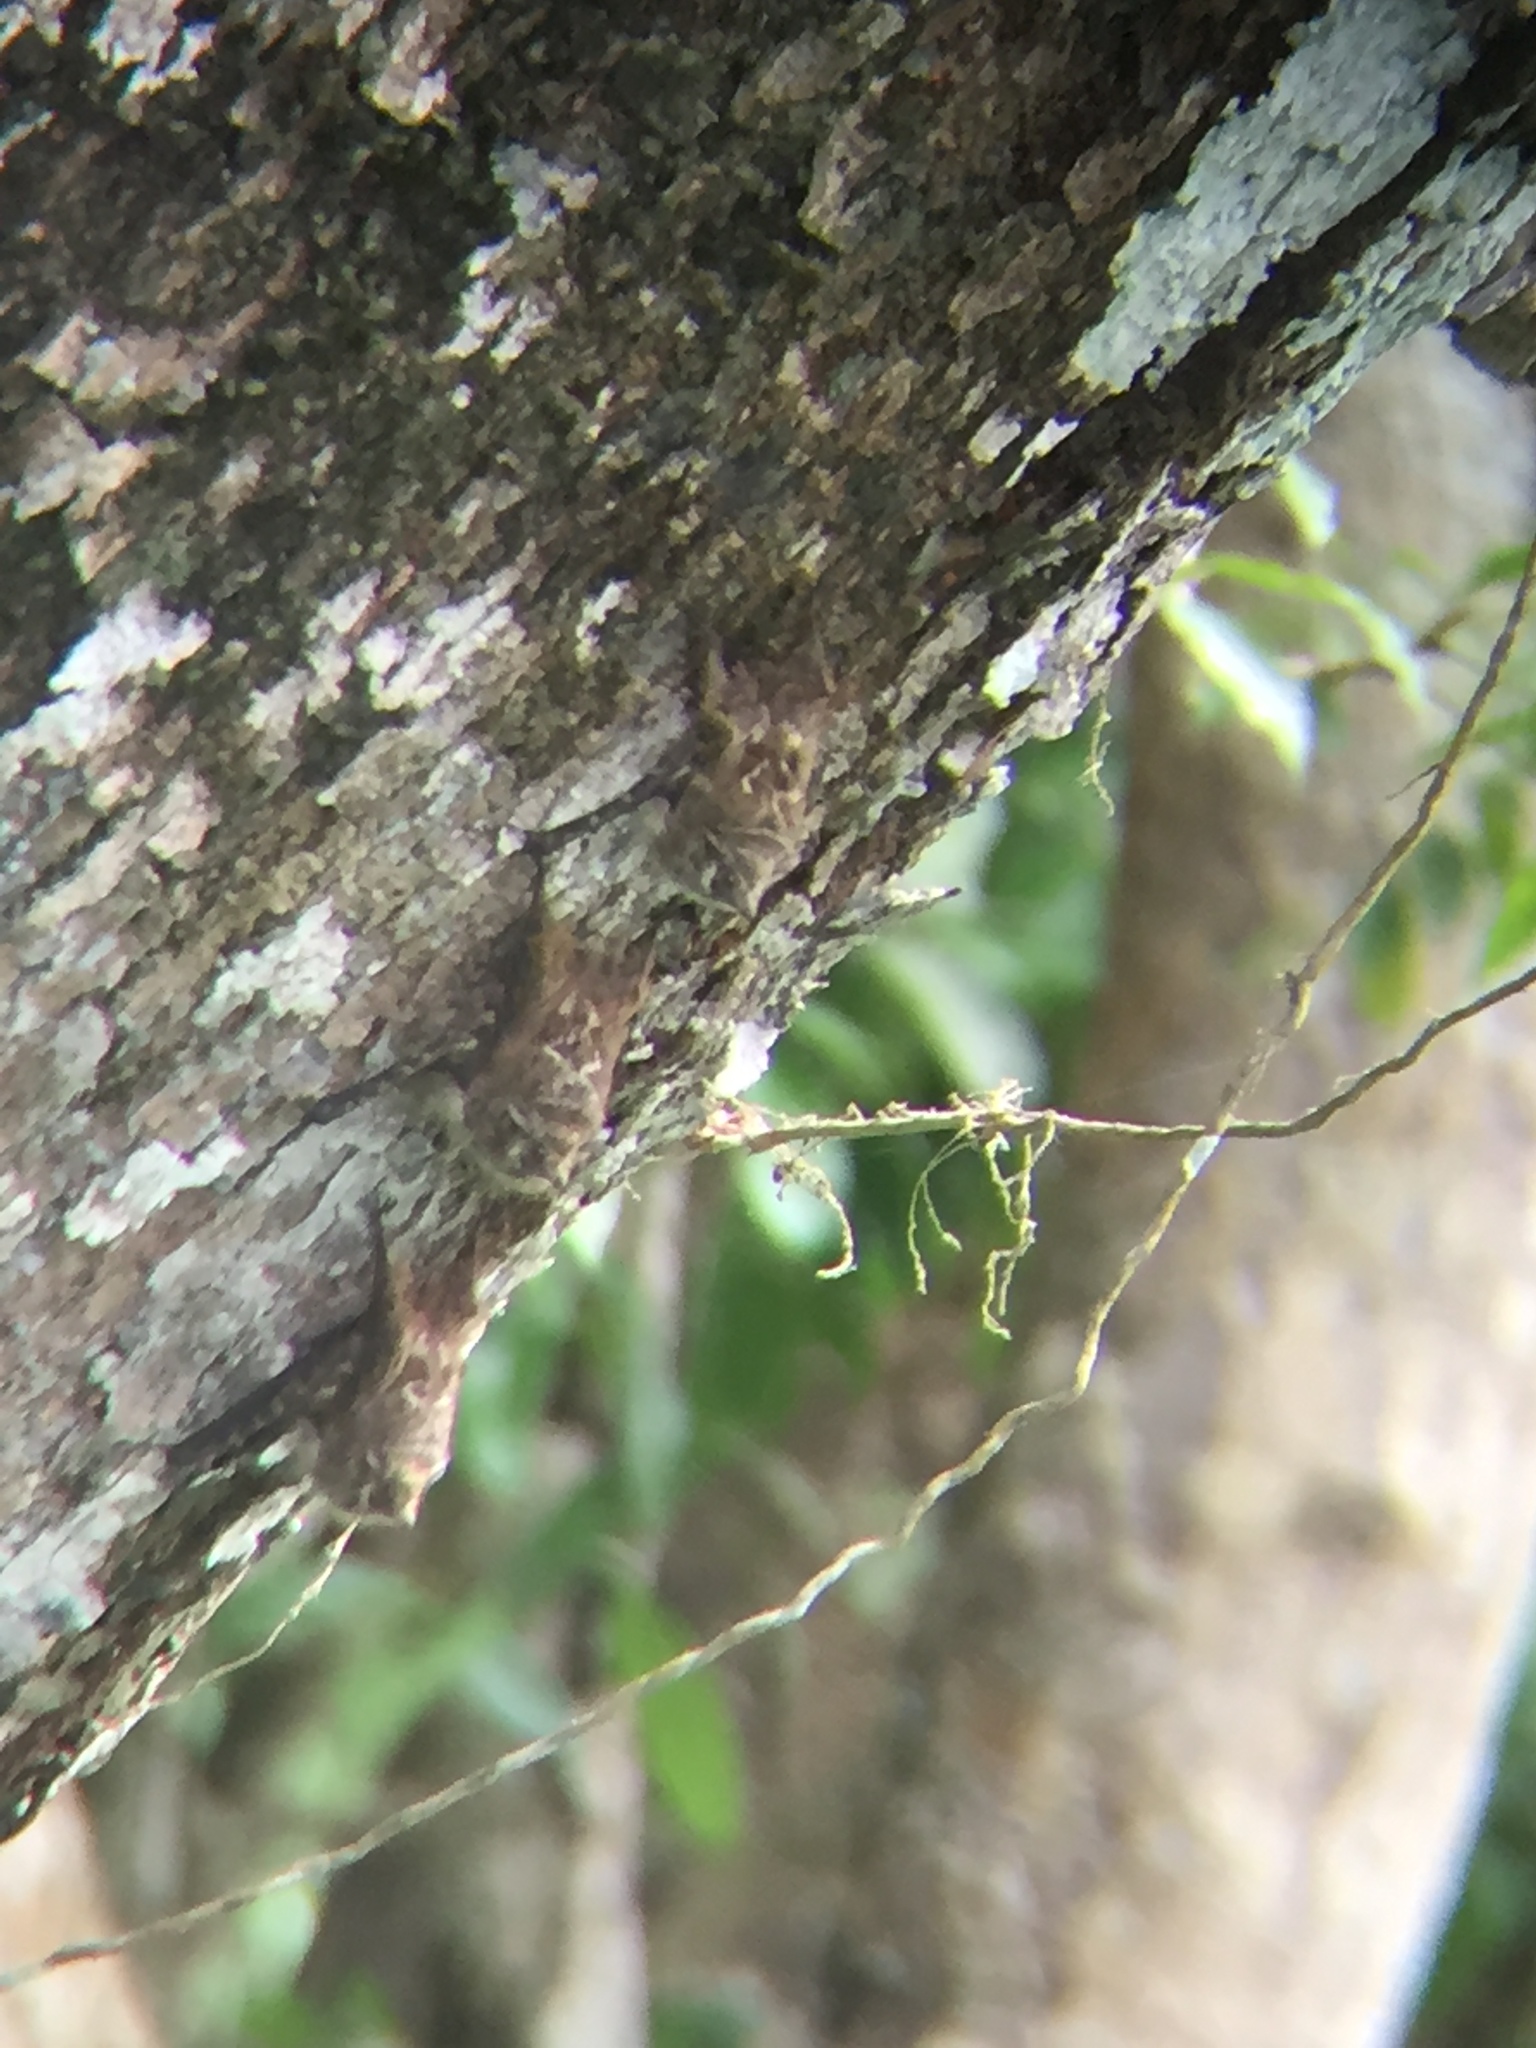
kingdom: Animalia
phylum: Chordata
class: Mammalia
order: Chiroptera
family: Emballonuridae
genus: Rhynchonycteris
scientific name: Rhynchonycteris naso
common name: Proboscis bat
